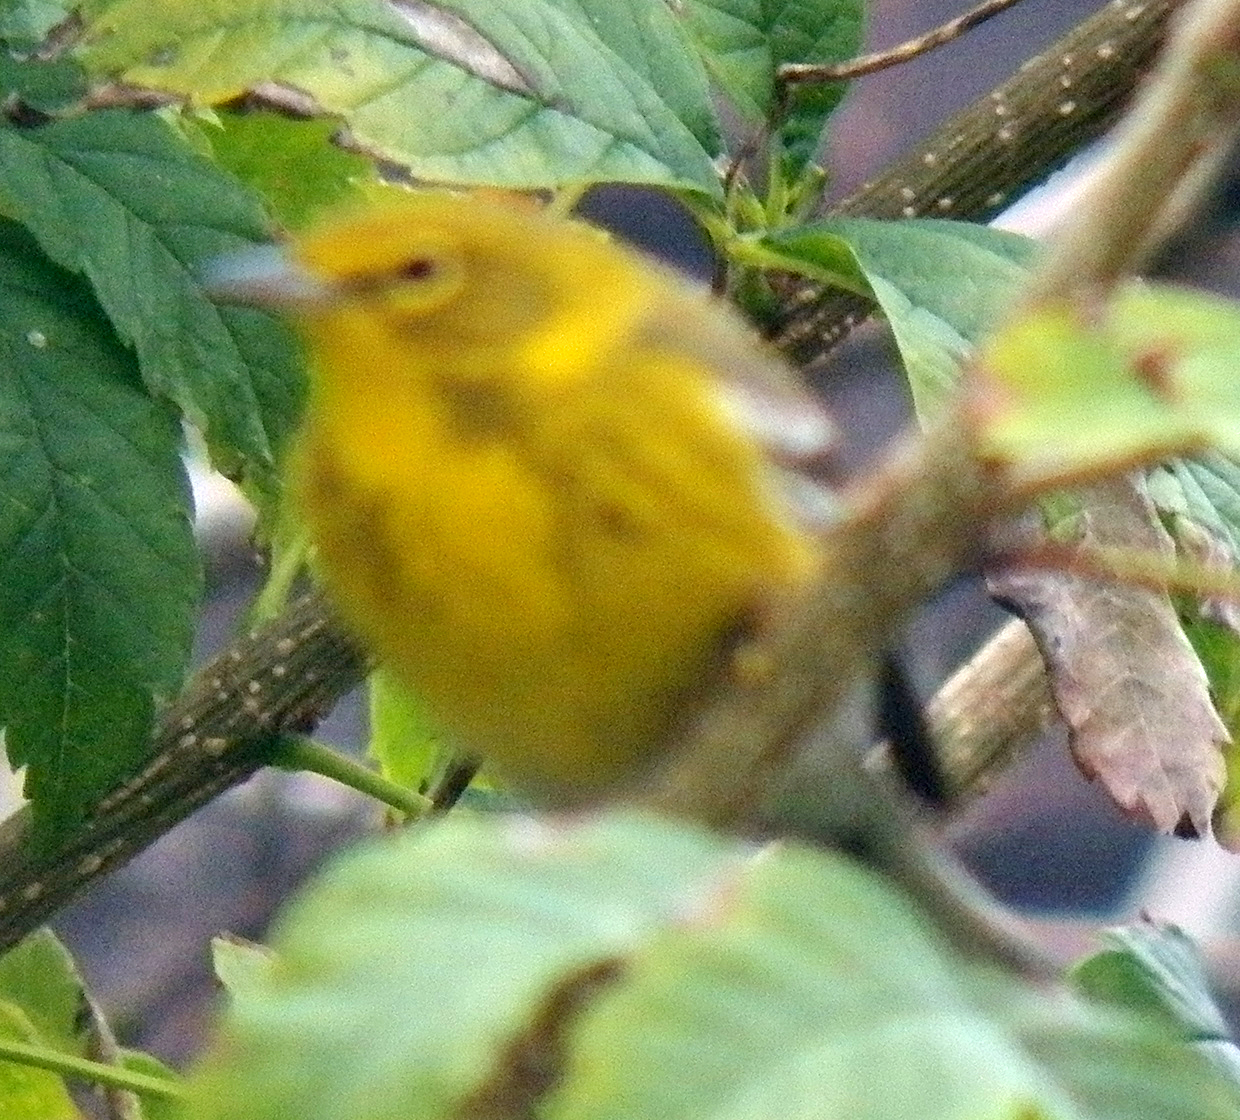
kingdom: Animalia
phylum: Chordata
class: Aves
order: Passeriformes
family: Parulidae
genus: Setophaga
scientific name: Setophaga pinus
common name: Pine warbler
